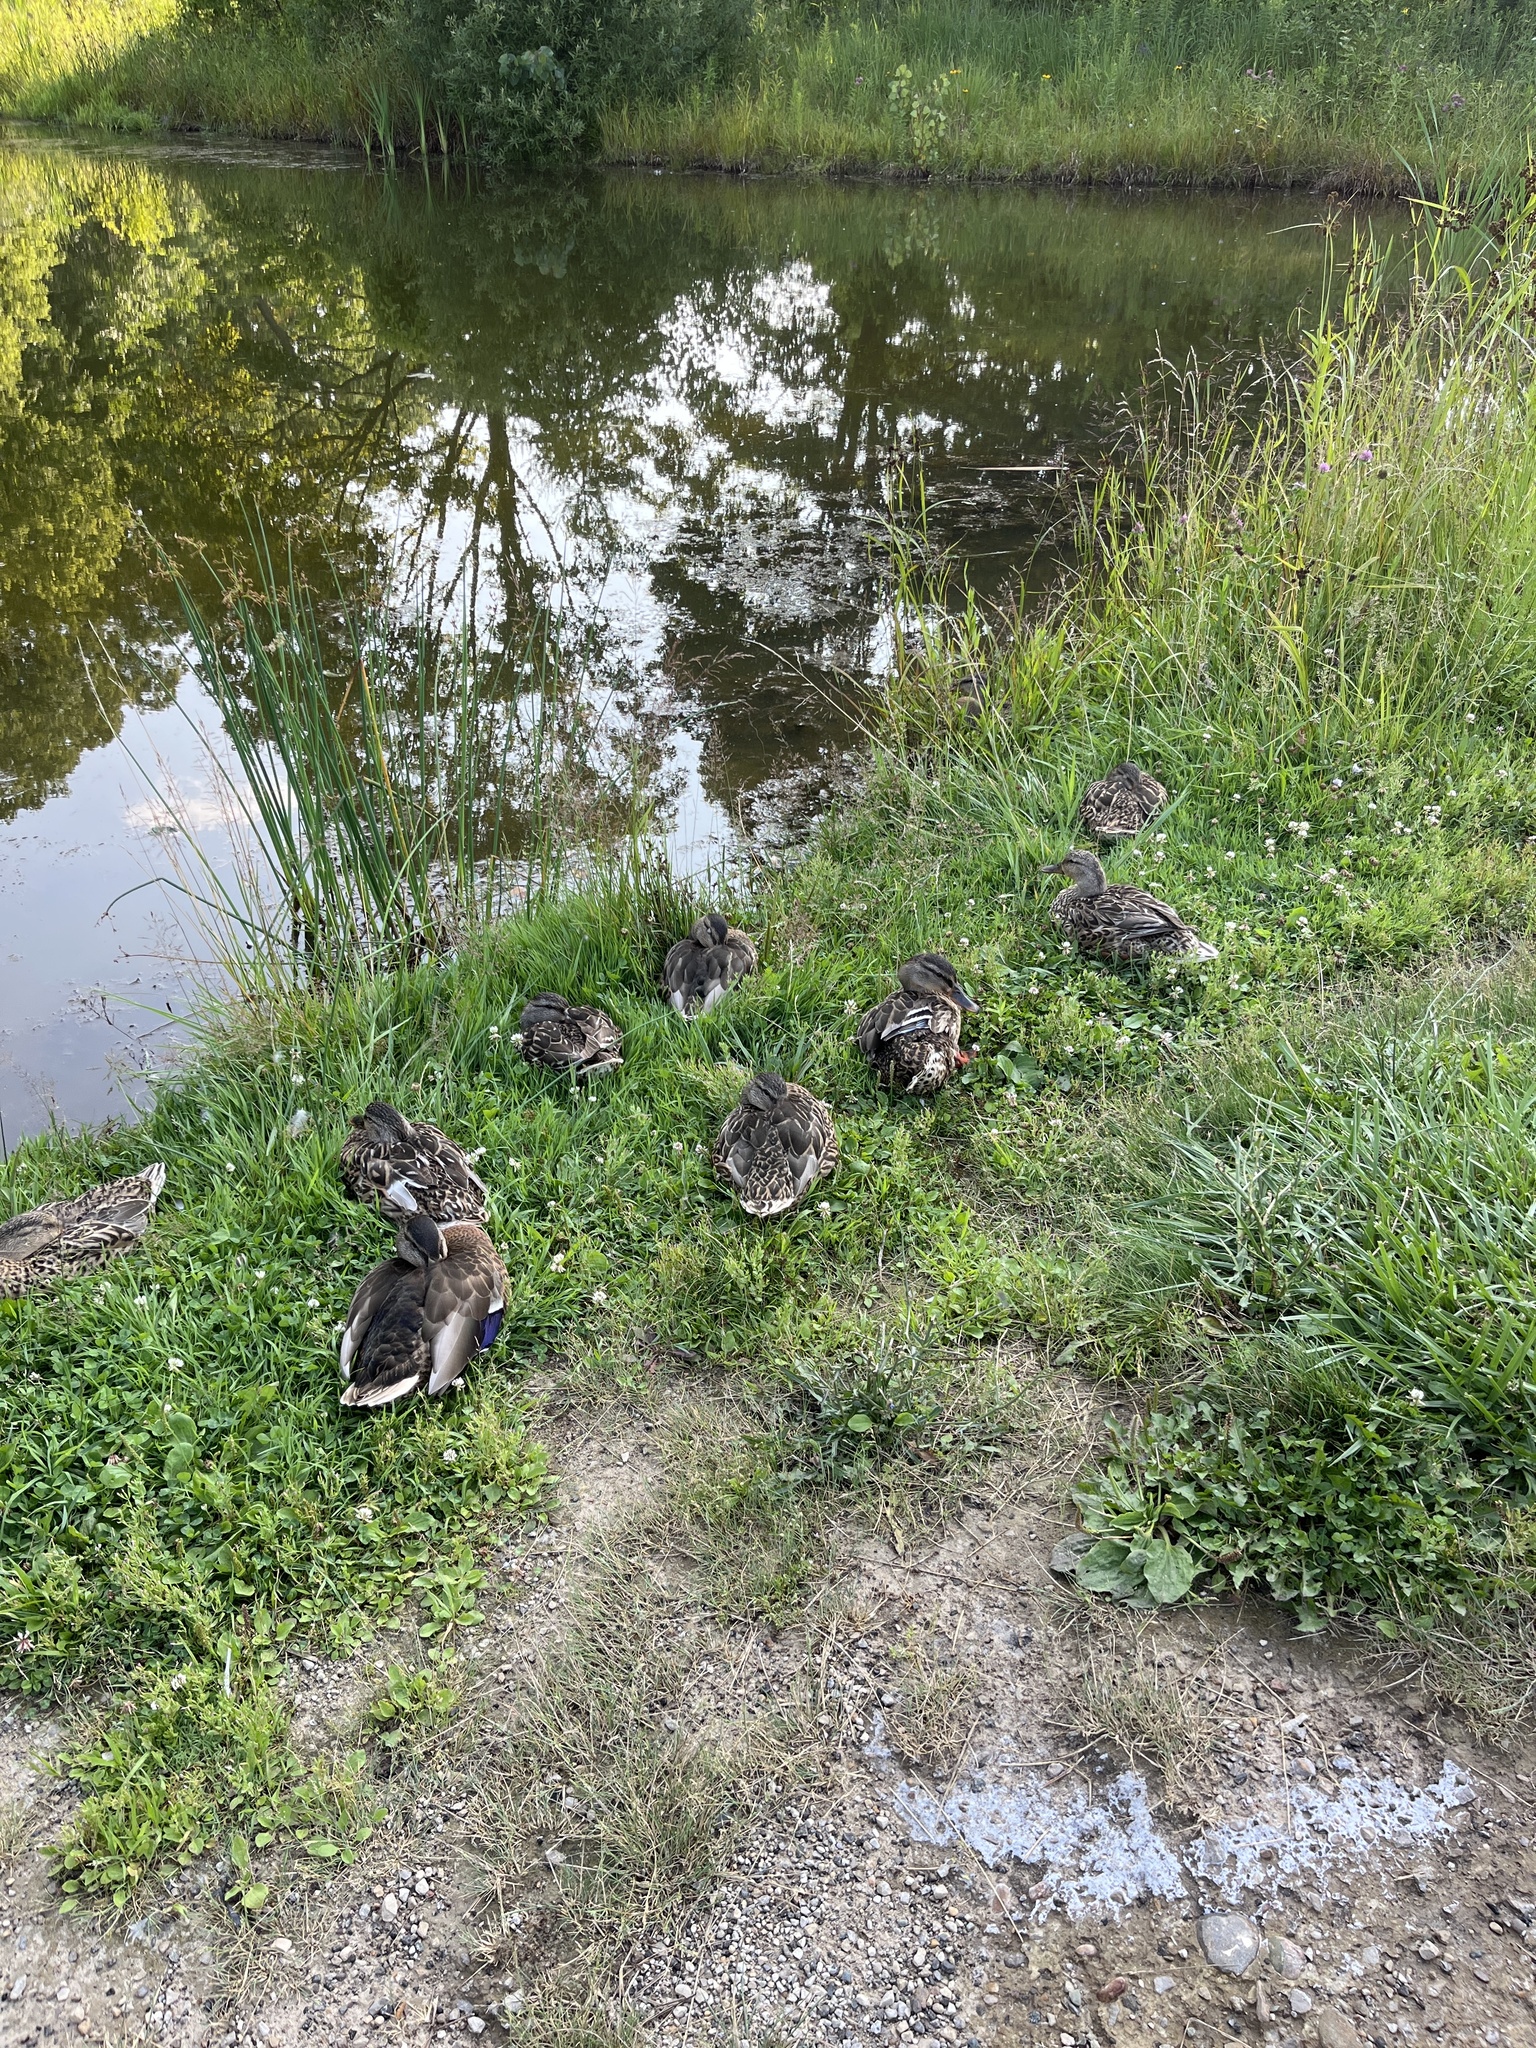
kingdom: Animalia
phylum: Chordata
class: Aves
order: Anseriformes
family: Anatidae
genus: Anas
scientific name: Anas platyrhynchos
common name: Mallard
